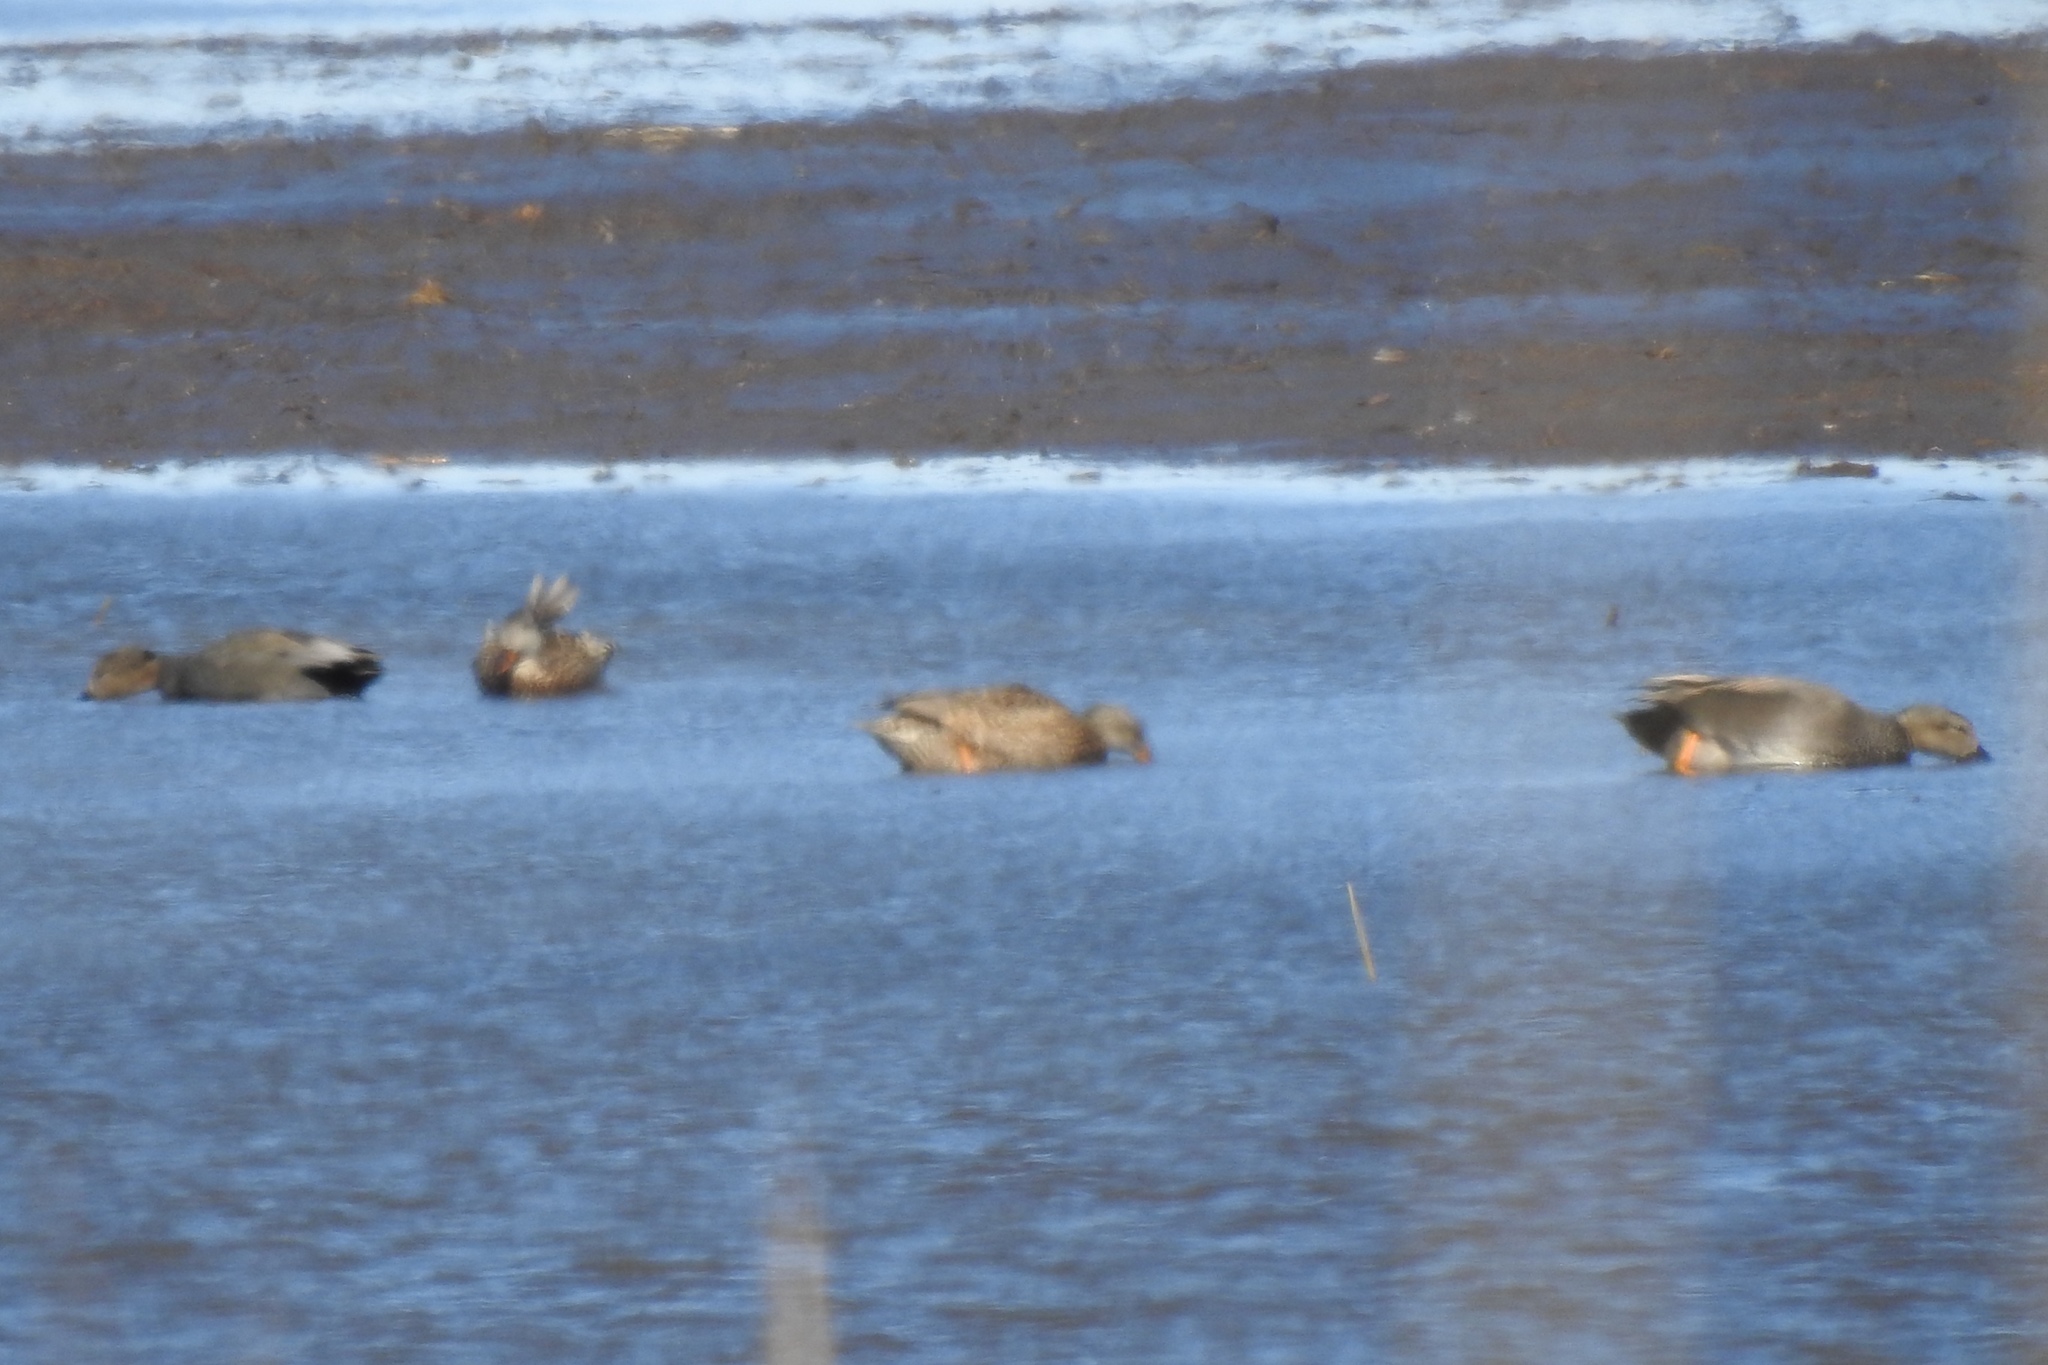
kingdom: Animalia
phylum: Chordata
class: Aves
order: Anseriformes
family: Anatidae
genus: Mareca
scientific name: Mareca strepera
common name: Gadwall
